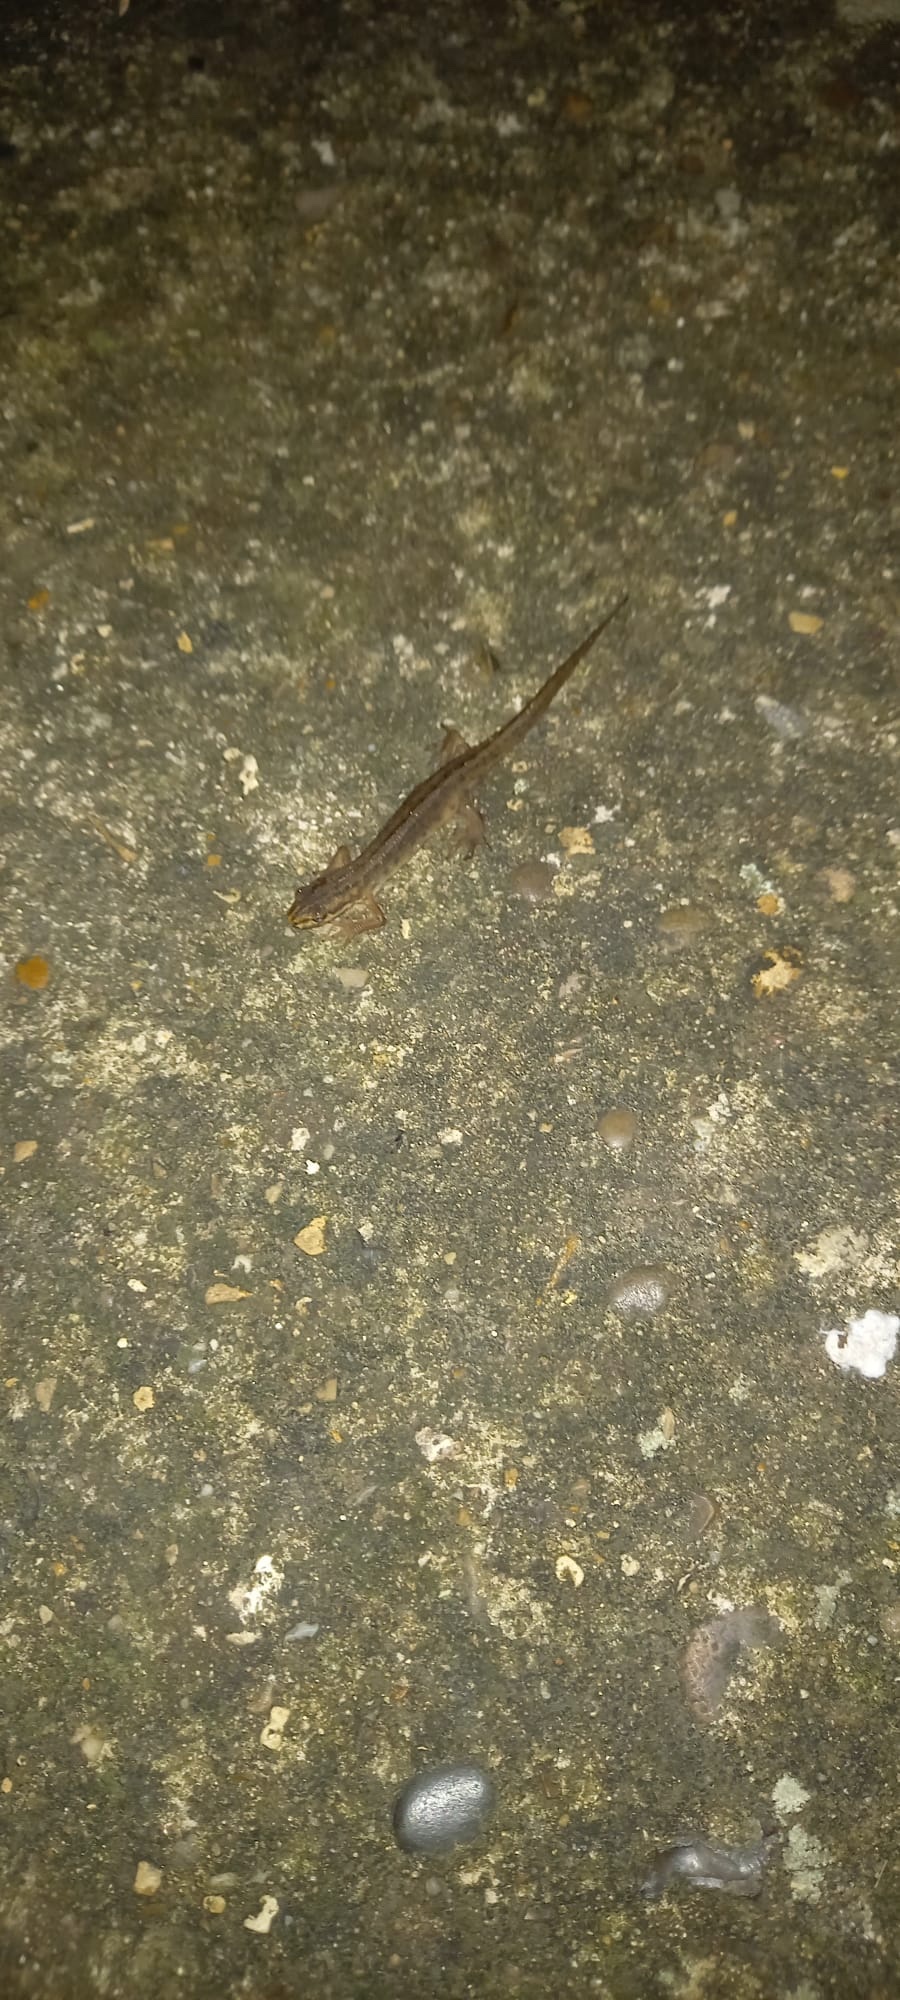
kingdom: Animalia
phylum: Chordata
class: Amphibia
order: Caudata
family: Salamandridae
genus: Lissotriton
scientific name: Lissotriton vulgaris
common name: Smooth newt
